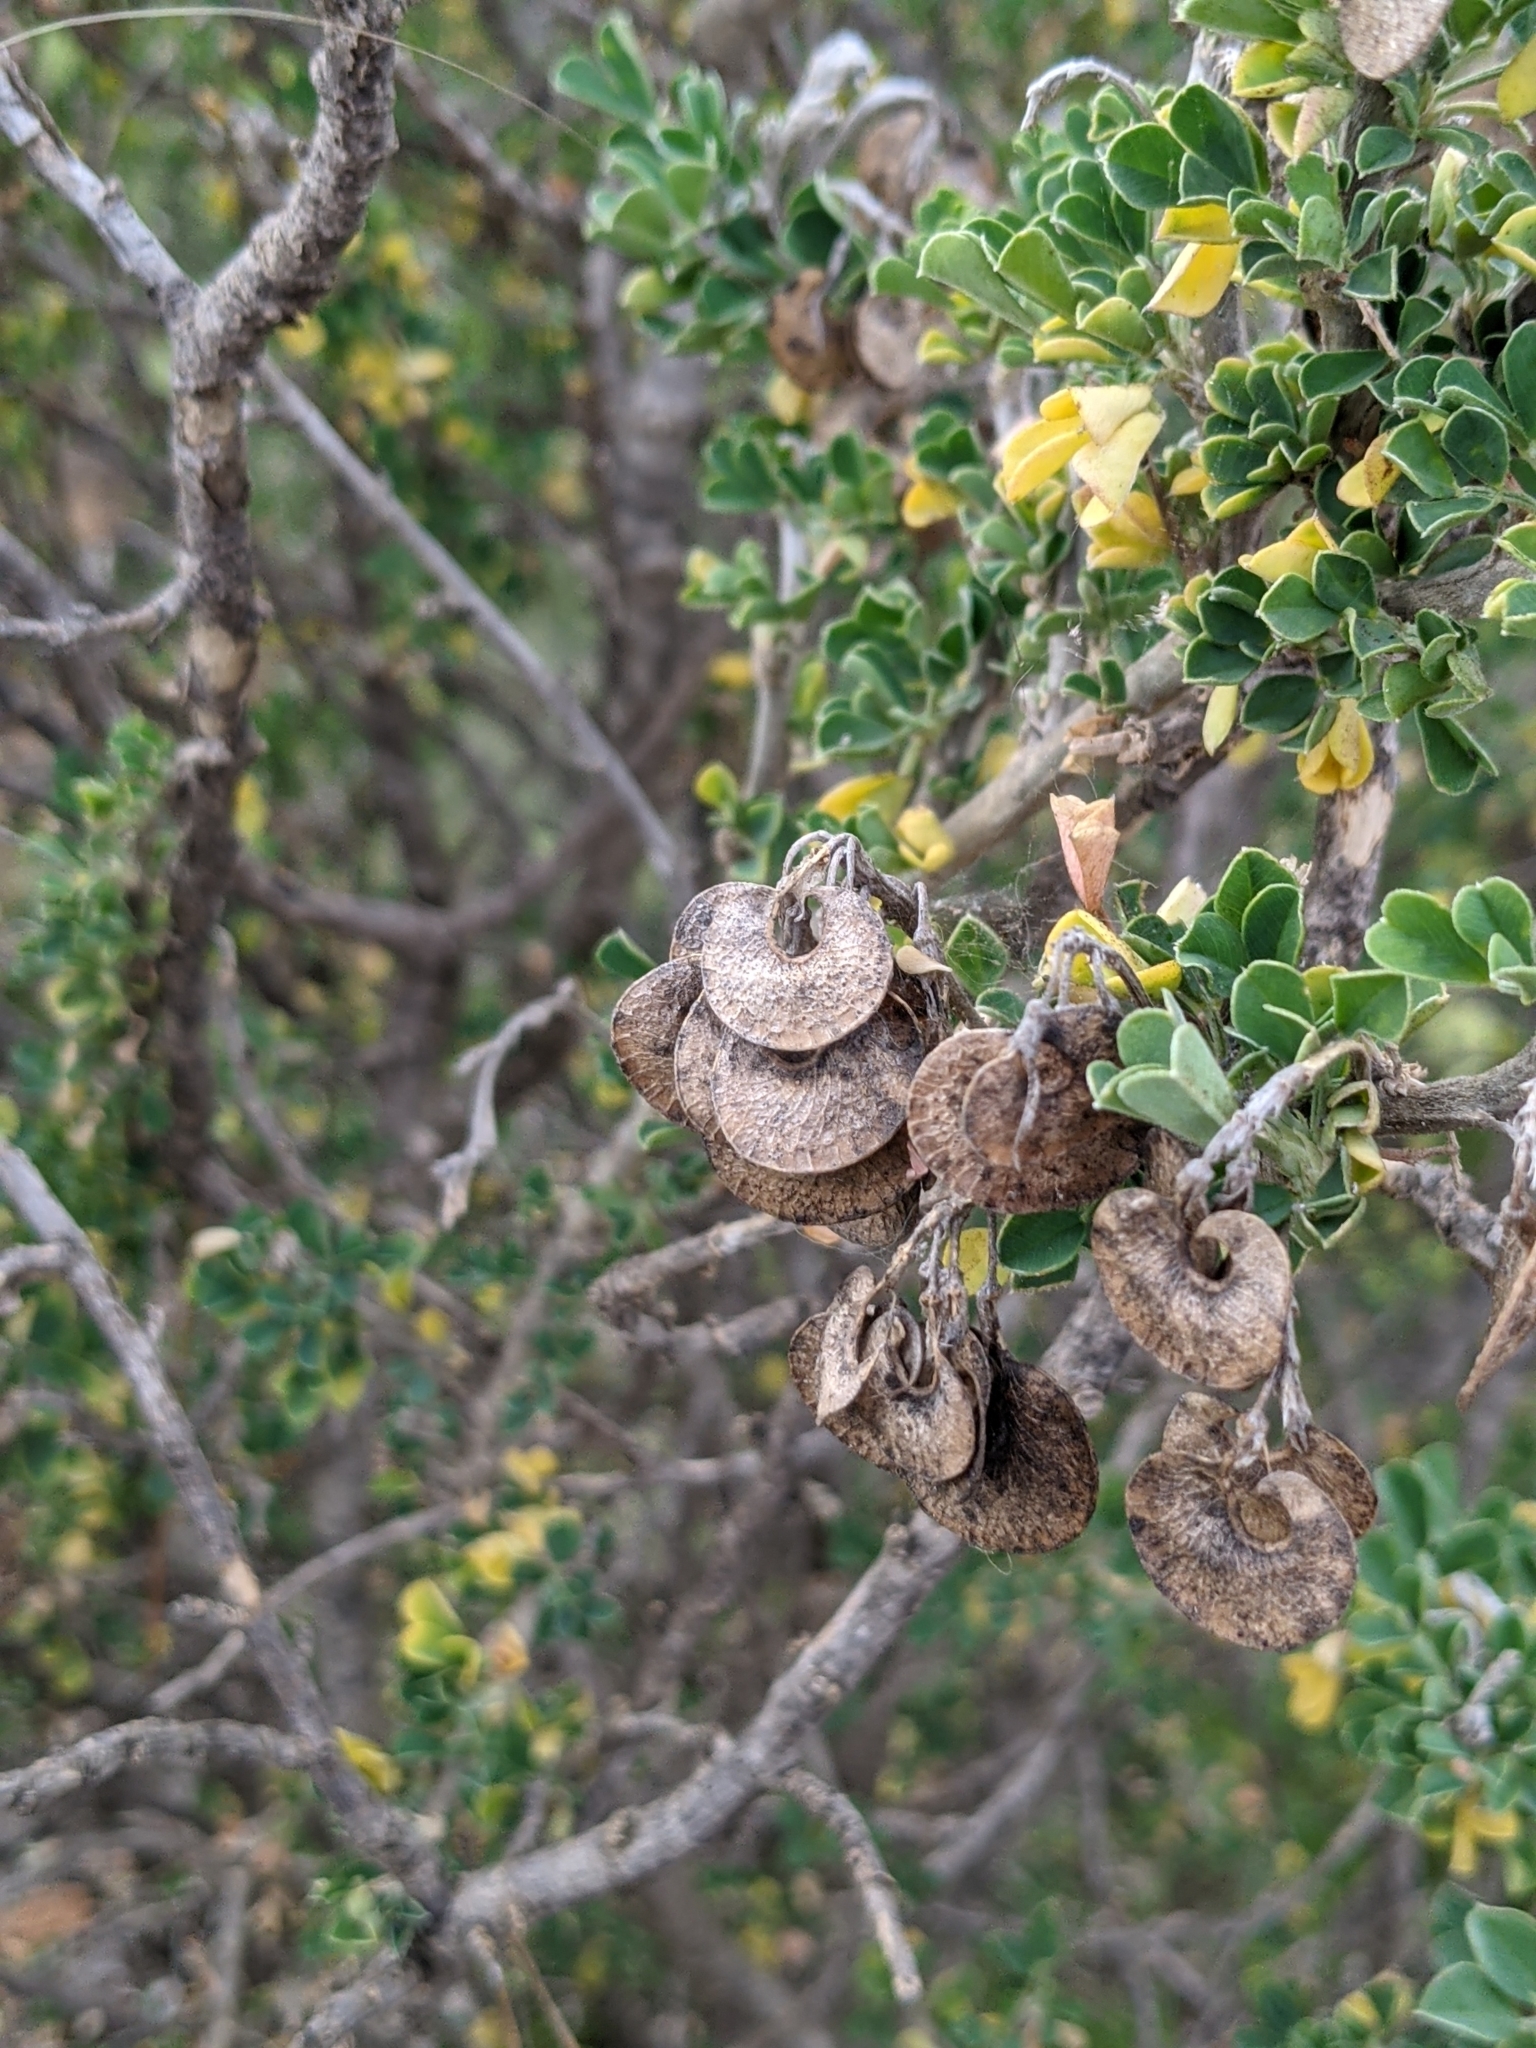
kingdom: Plantae
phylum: Tracheophyta
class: Magnoliopsida
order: Fabales
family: Fabaceae
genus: Medicago
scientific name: Medicago arborea
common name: Moon trefoil
